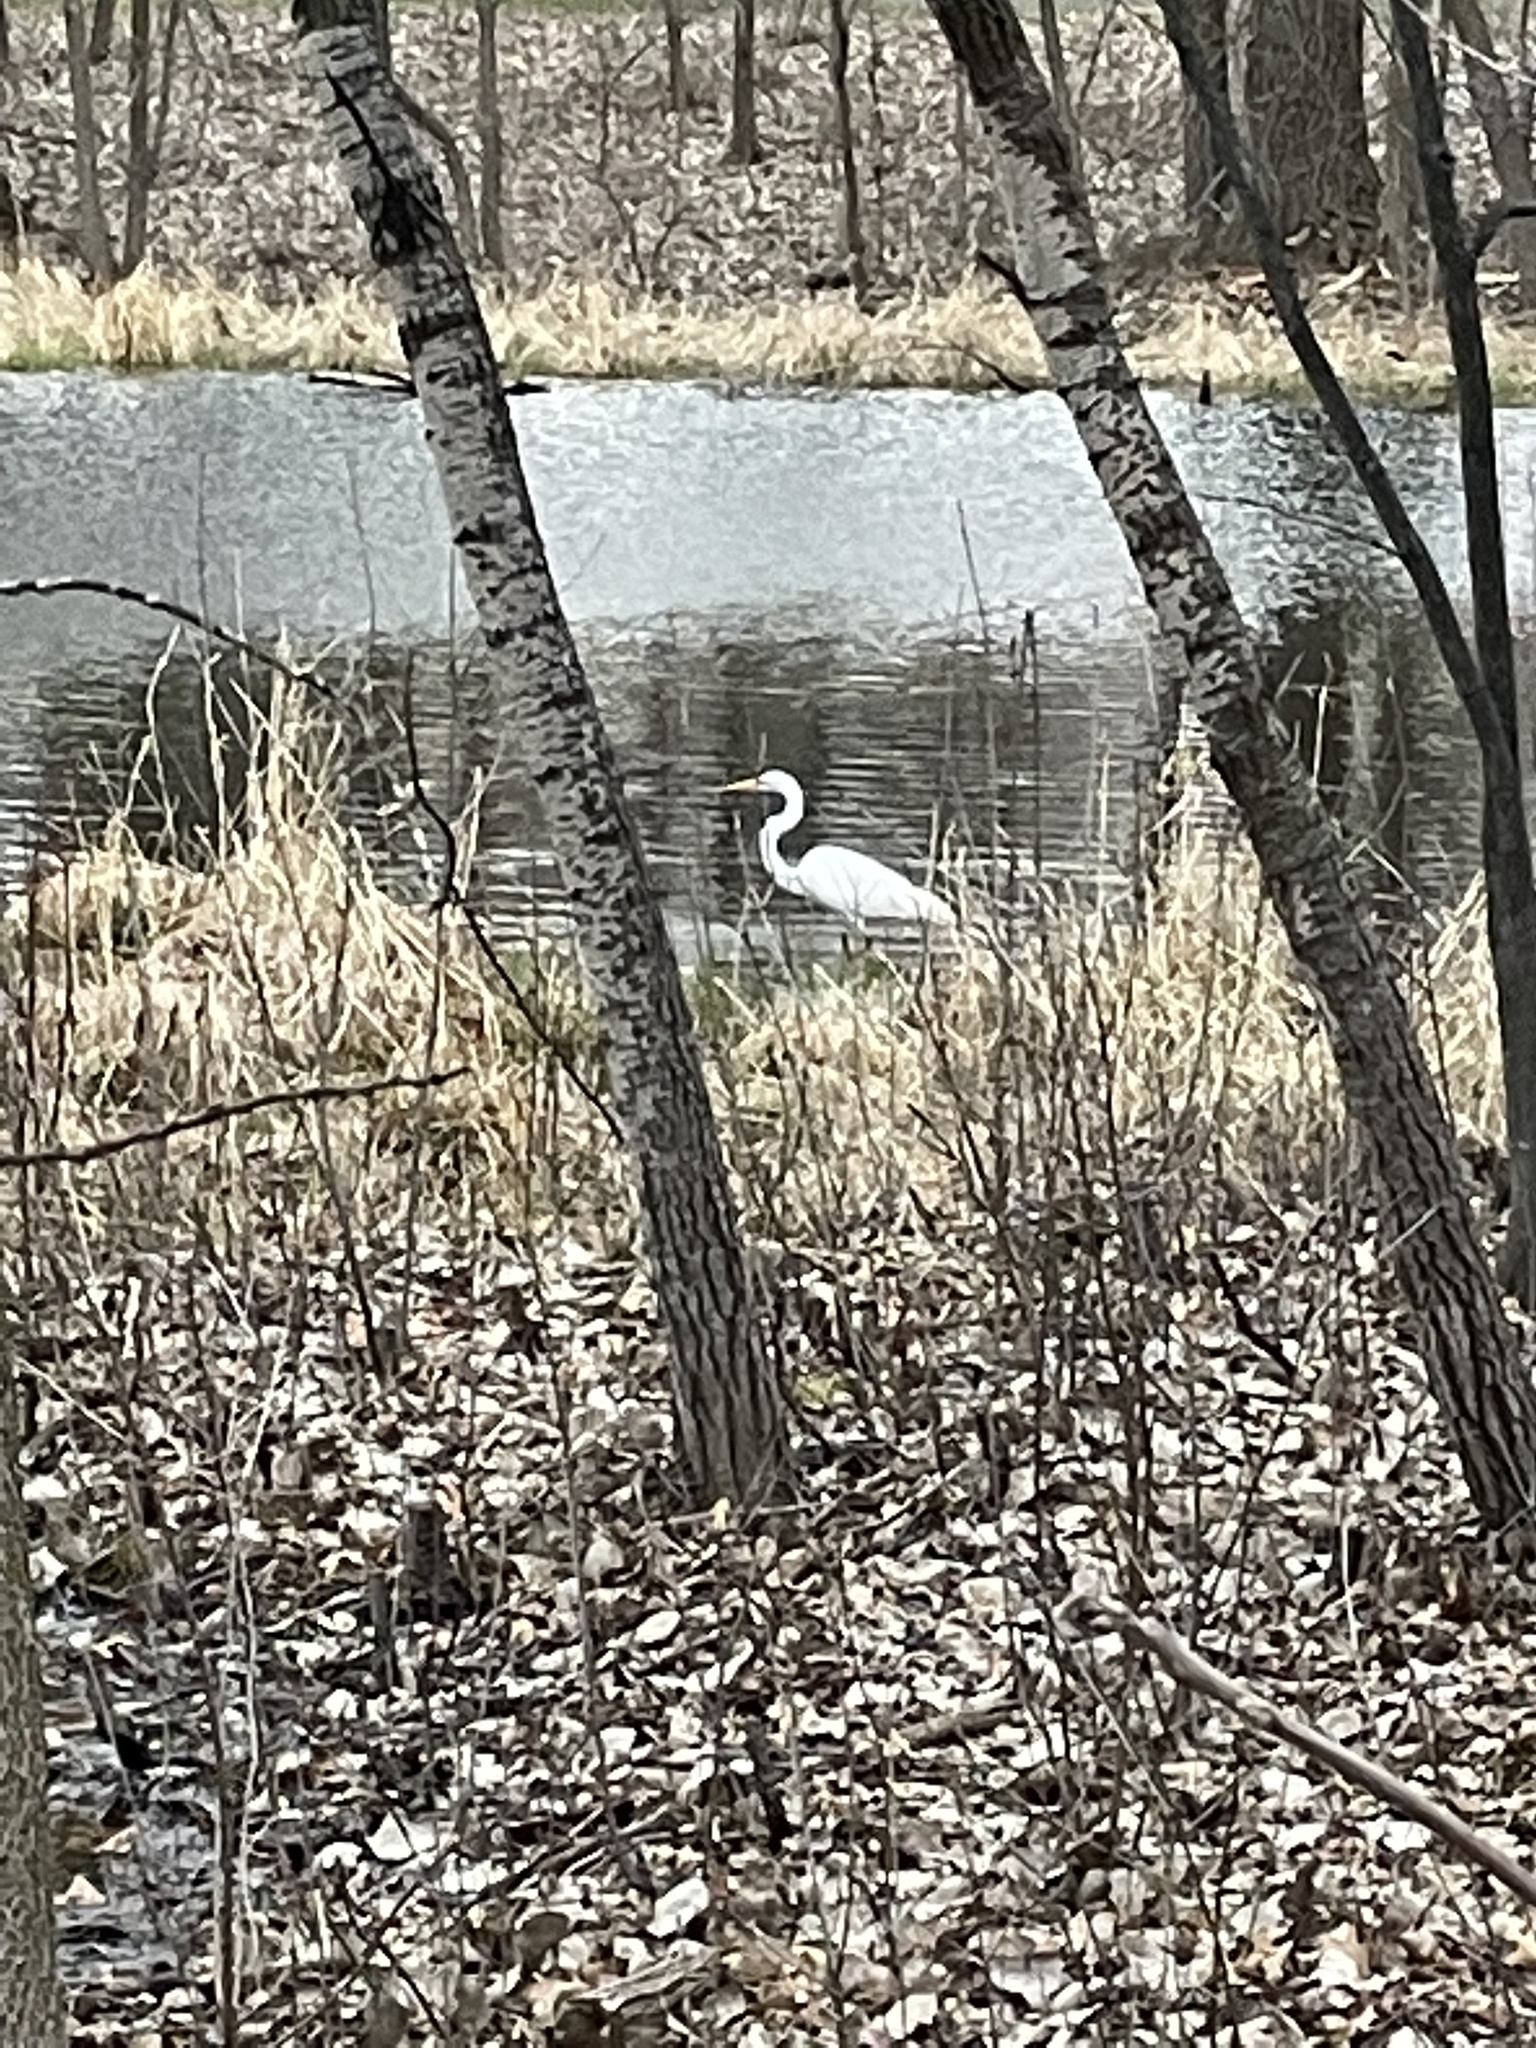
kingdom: Animalia
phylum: Chordata
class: Aves
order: Pelecaniformes
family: Ardeidae
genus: Ardea
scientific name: Ardea alba
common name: Great egret
